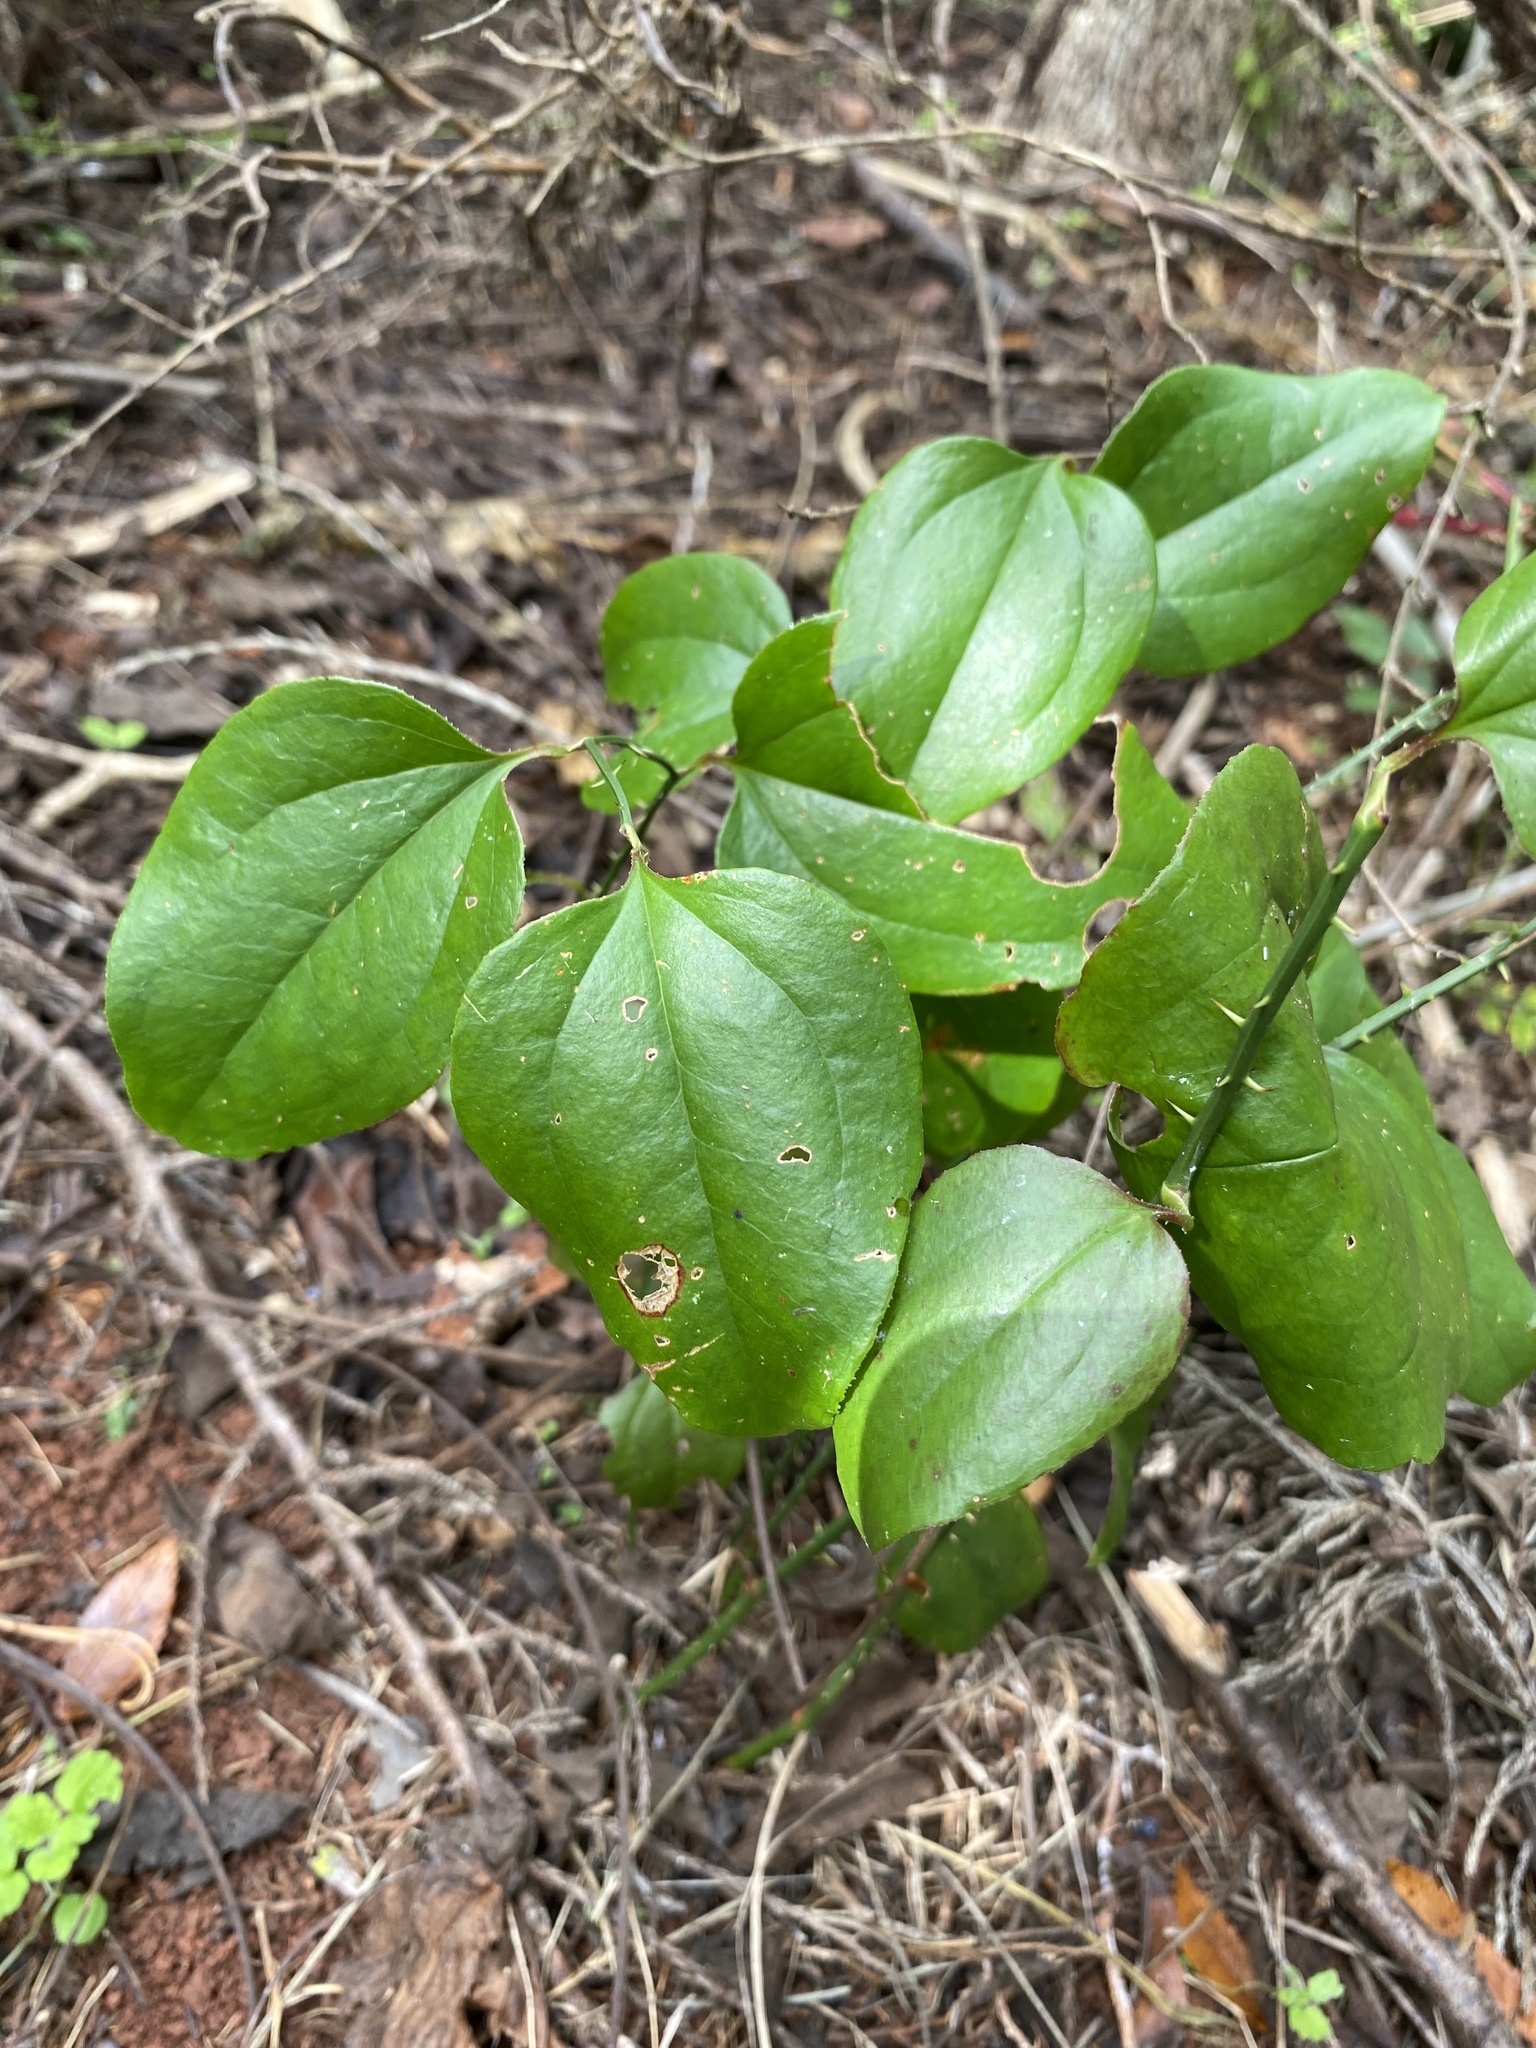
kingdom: Plantae
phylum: Tracheophyta
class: Liliopsida
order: Liliales
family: Smilacaceae
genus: Smilax
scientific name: Smilax rotundifolia
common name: Bullbriar
